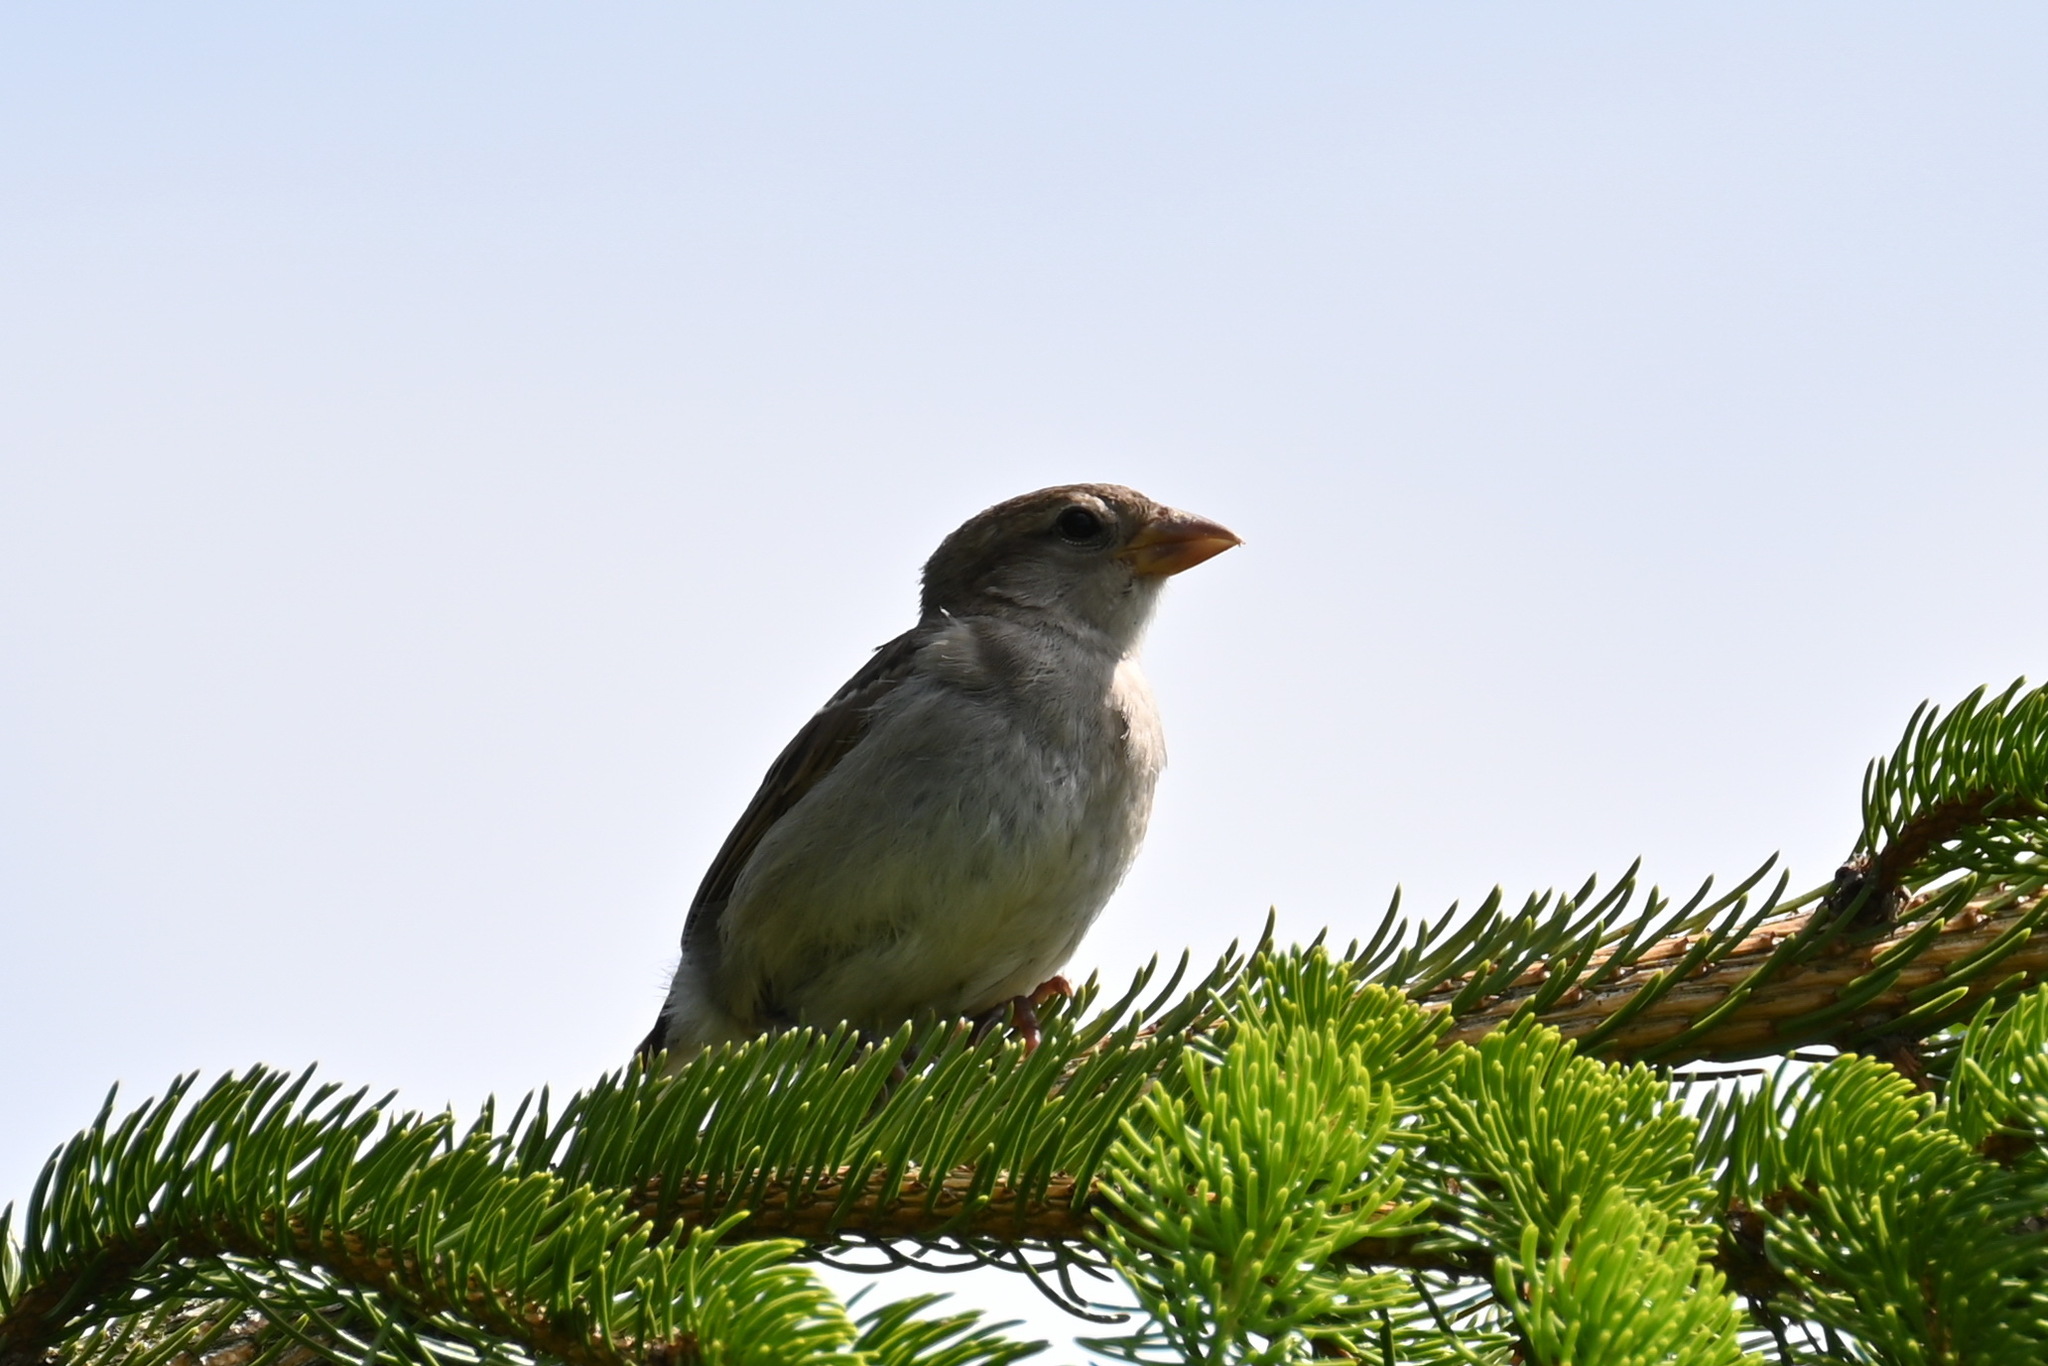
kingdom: Animalia
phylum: Chordata
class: Aves
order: Passeriformes
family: Passeridae
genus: Passer
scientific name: Passer domesticus
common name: House sparrow
